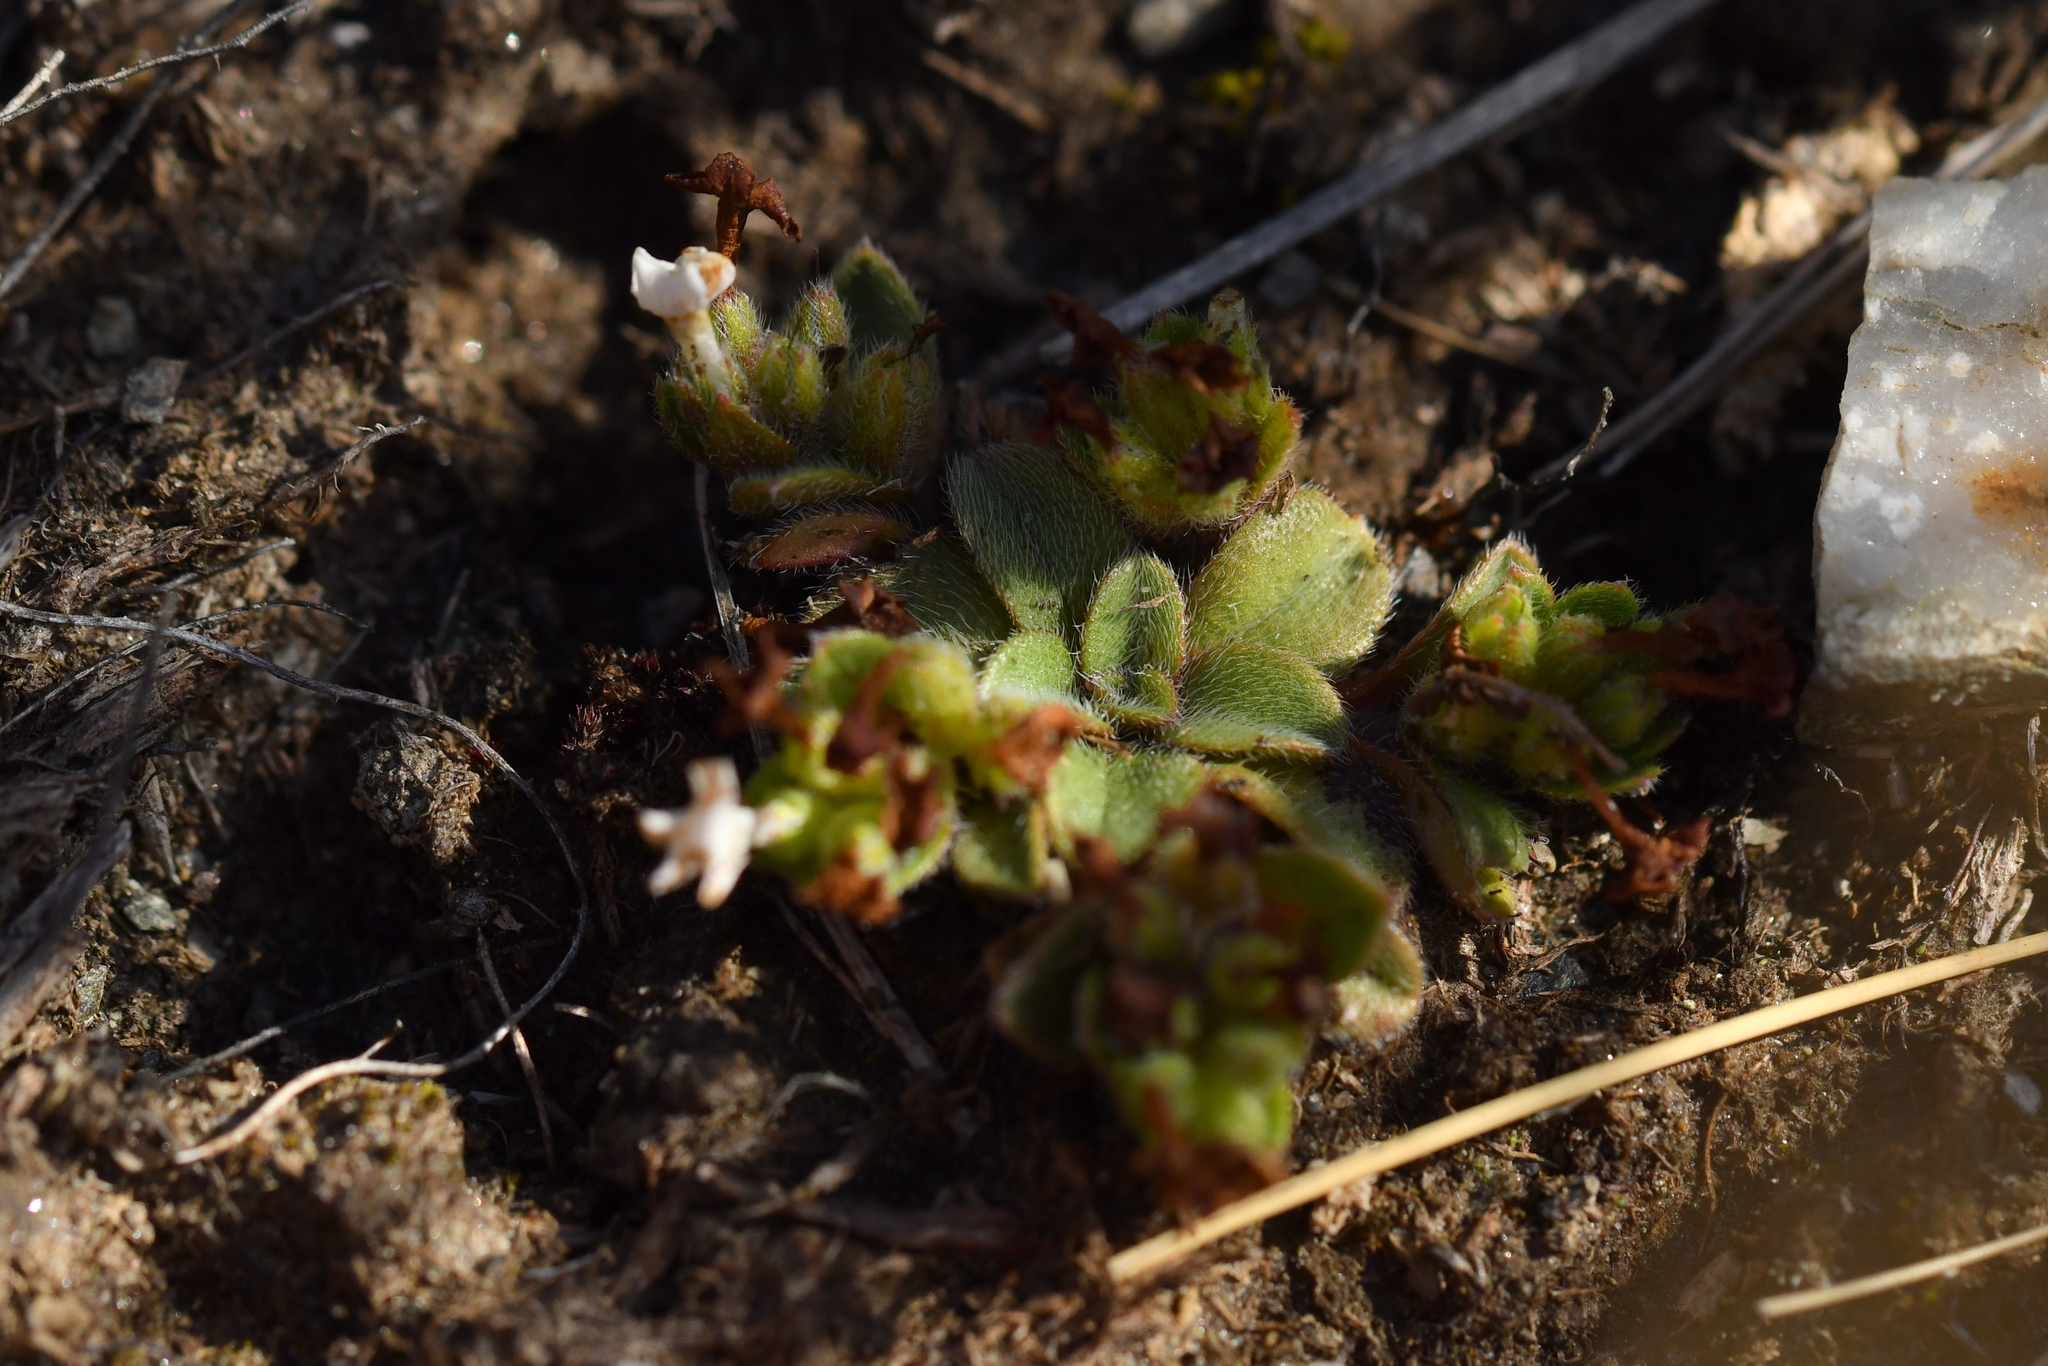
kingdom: Plantae
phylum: Tracheophyta
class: Magnoliopsida
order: Boraginales
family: Boraginaceae
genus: Myosotis
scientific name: Myosotis lyallii
